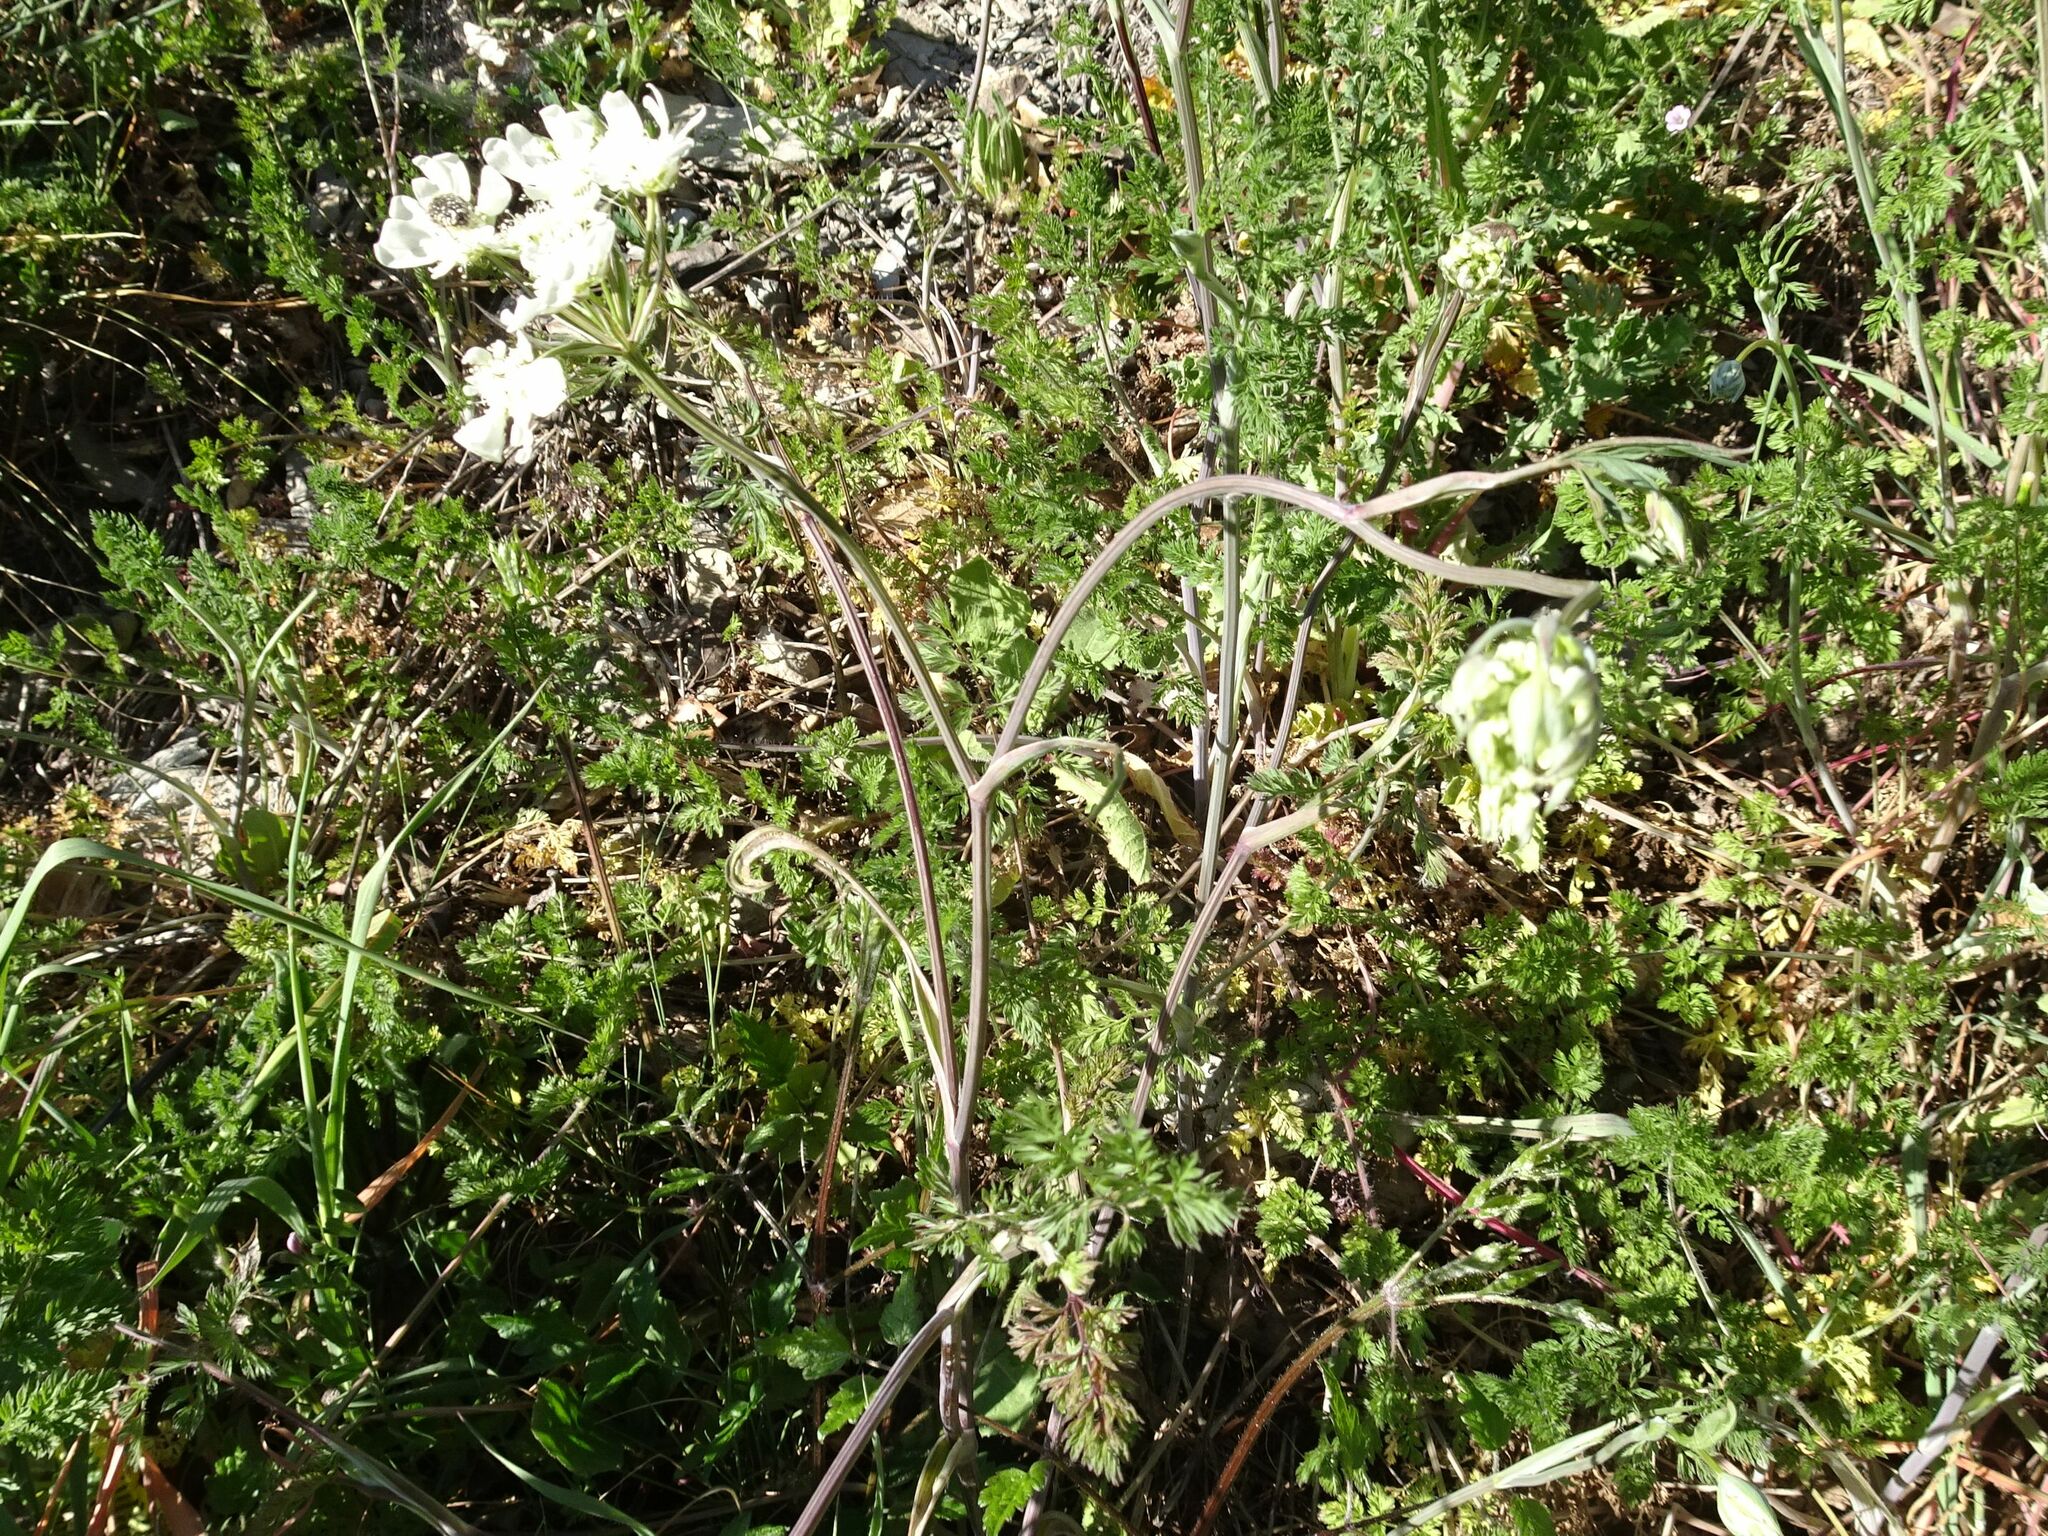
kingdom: Plantae
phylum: Tracheophyta
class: Magnoliopsida
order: Apiales
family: Apiaceae
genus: Orlaya
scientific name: Orlaya grandiflora
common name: White lace flower
